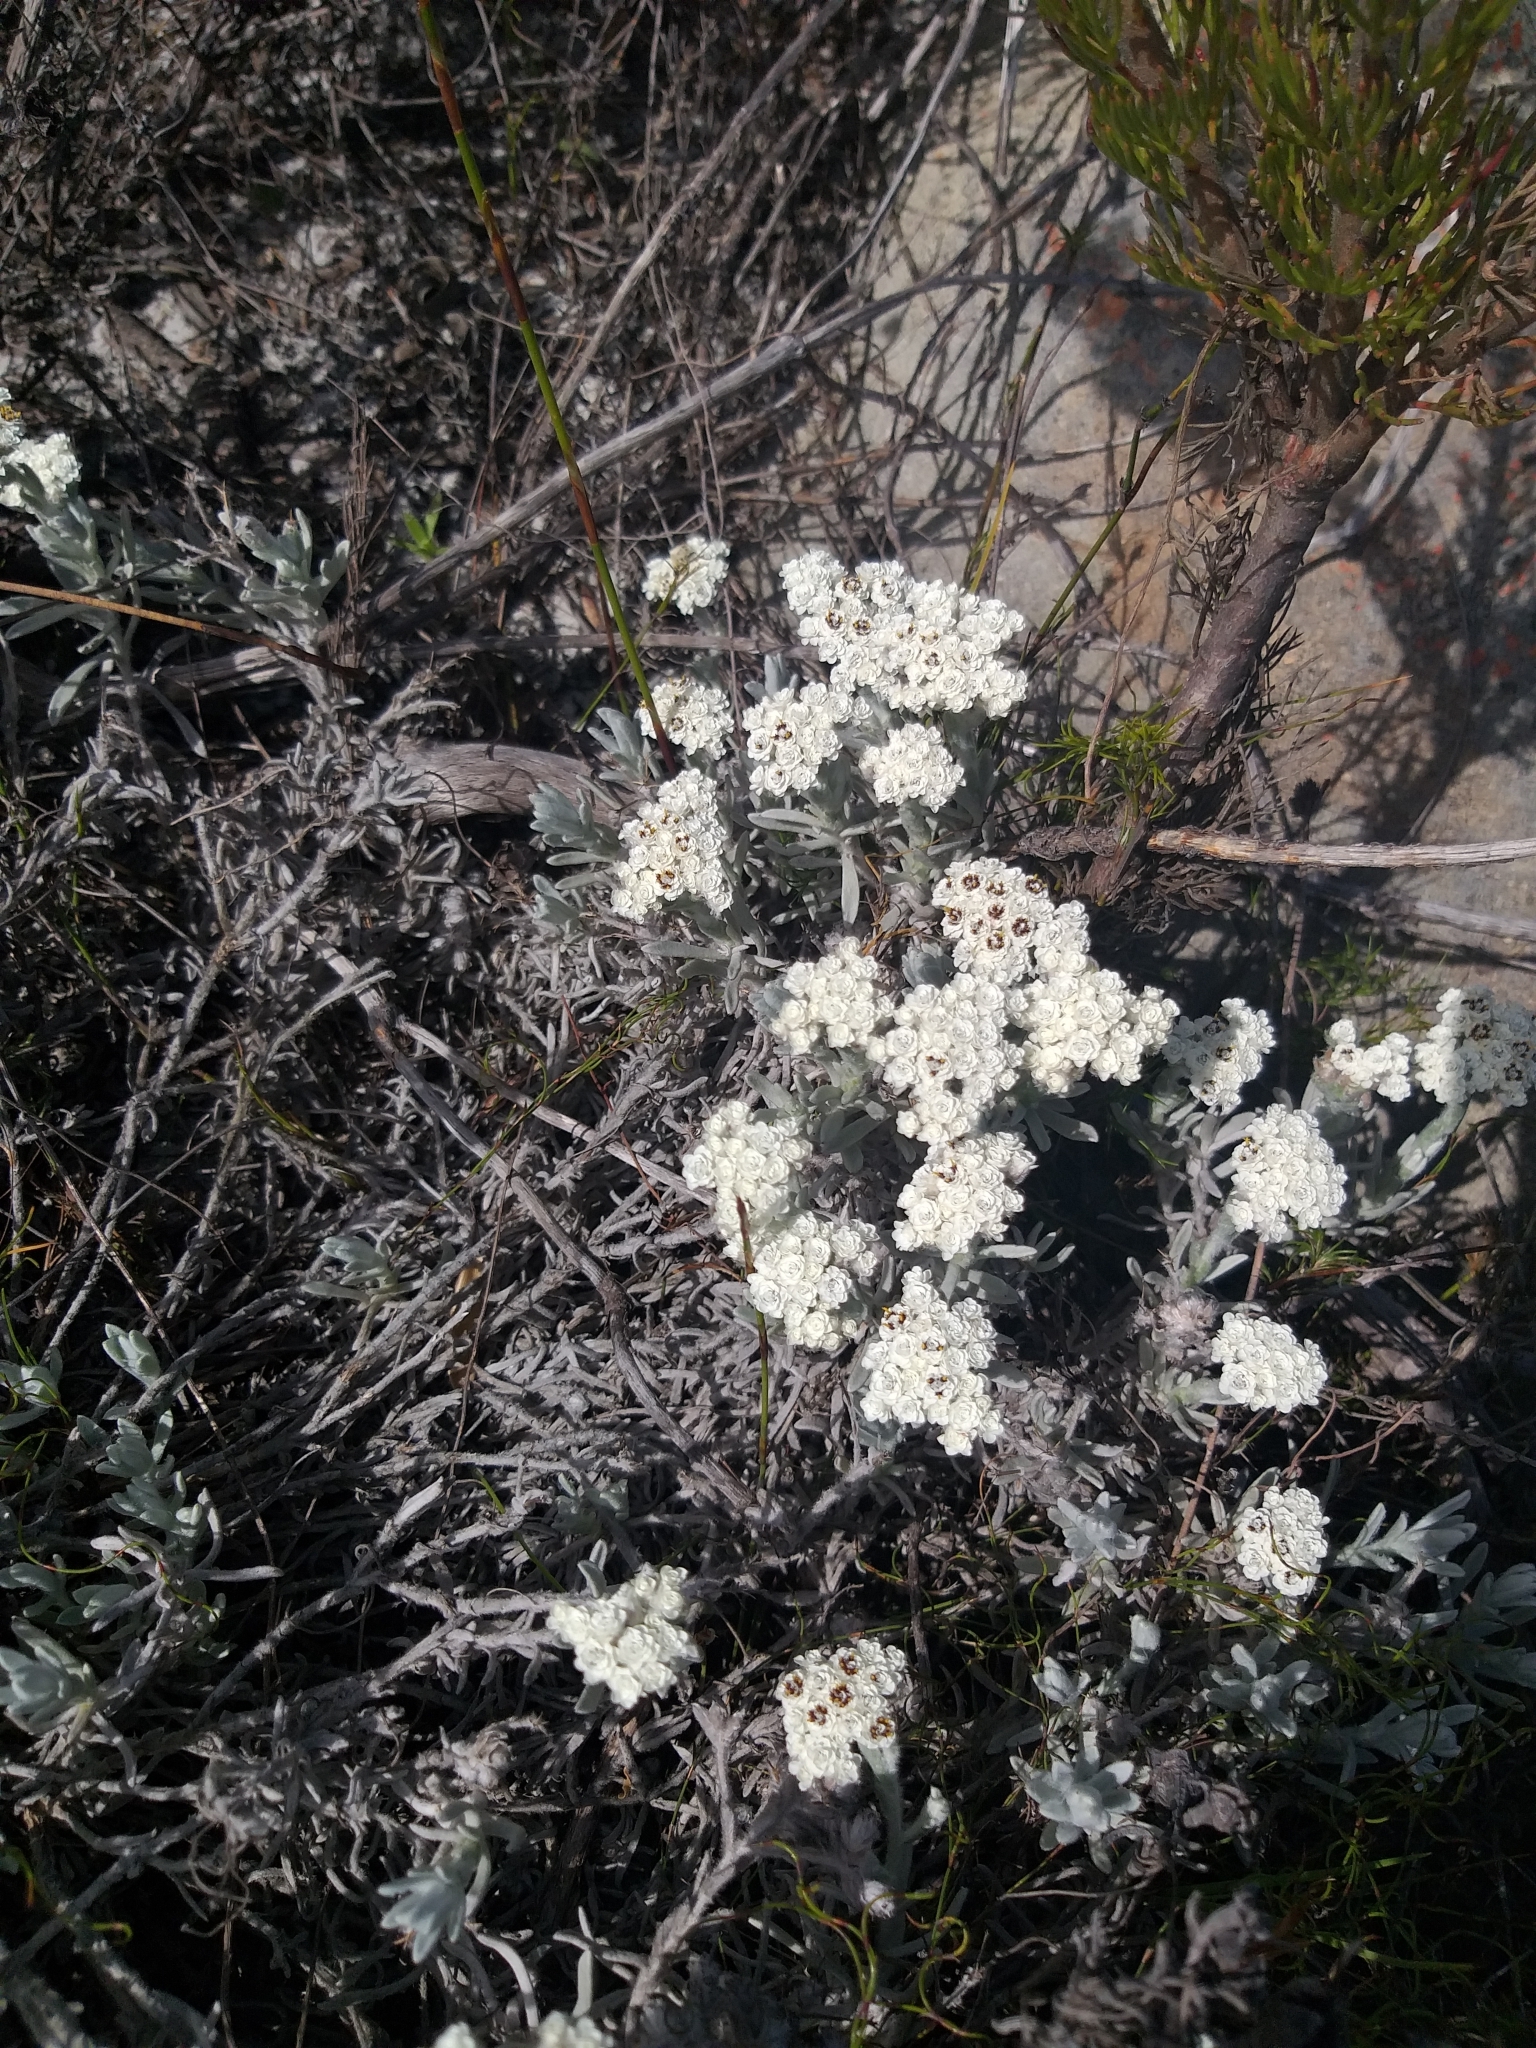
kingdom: Plantae
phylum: Tracheophyta
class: Magnoliopsida
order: Asterales
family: Asteraceae
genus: Petalacte
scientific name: Petalacte coronata
